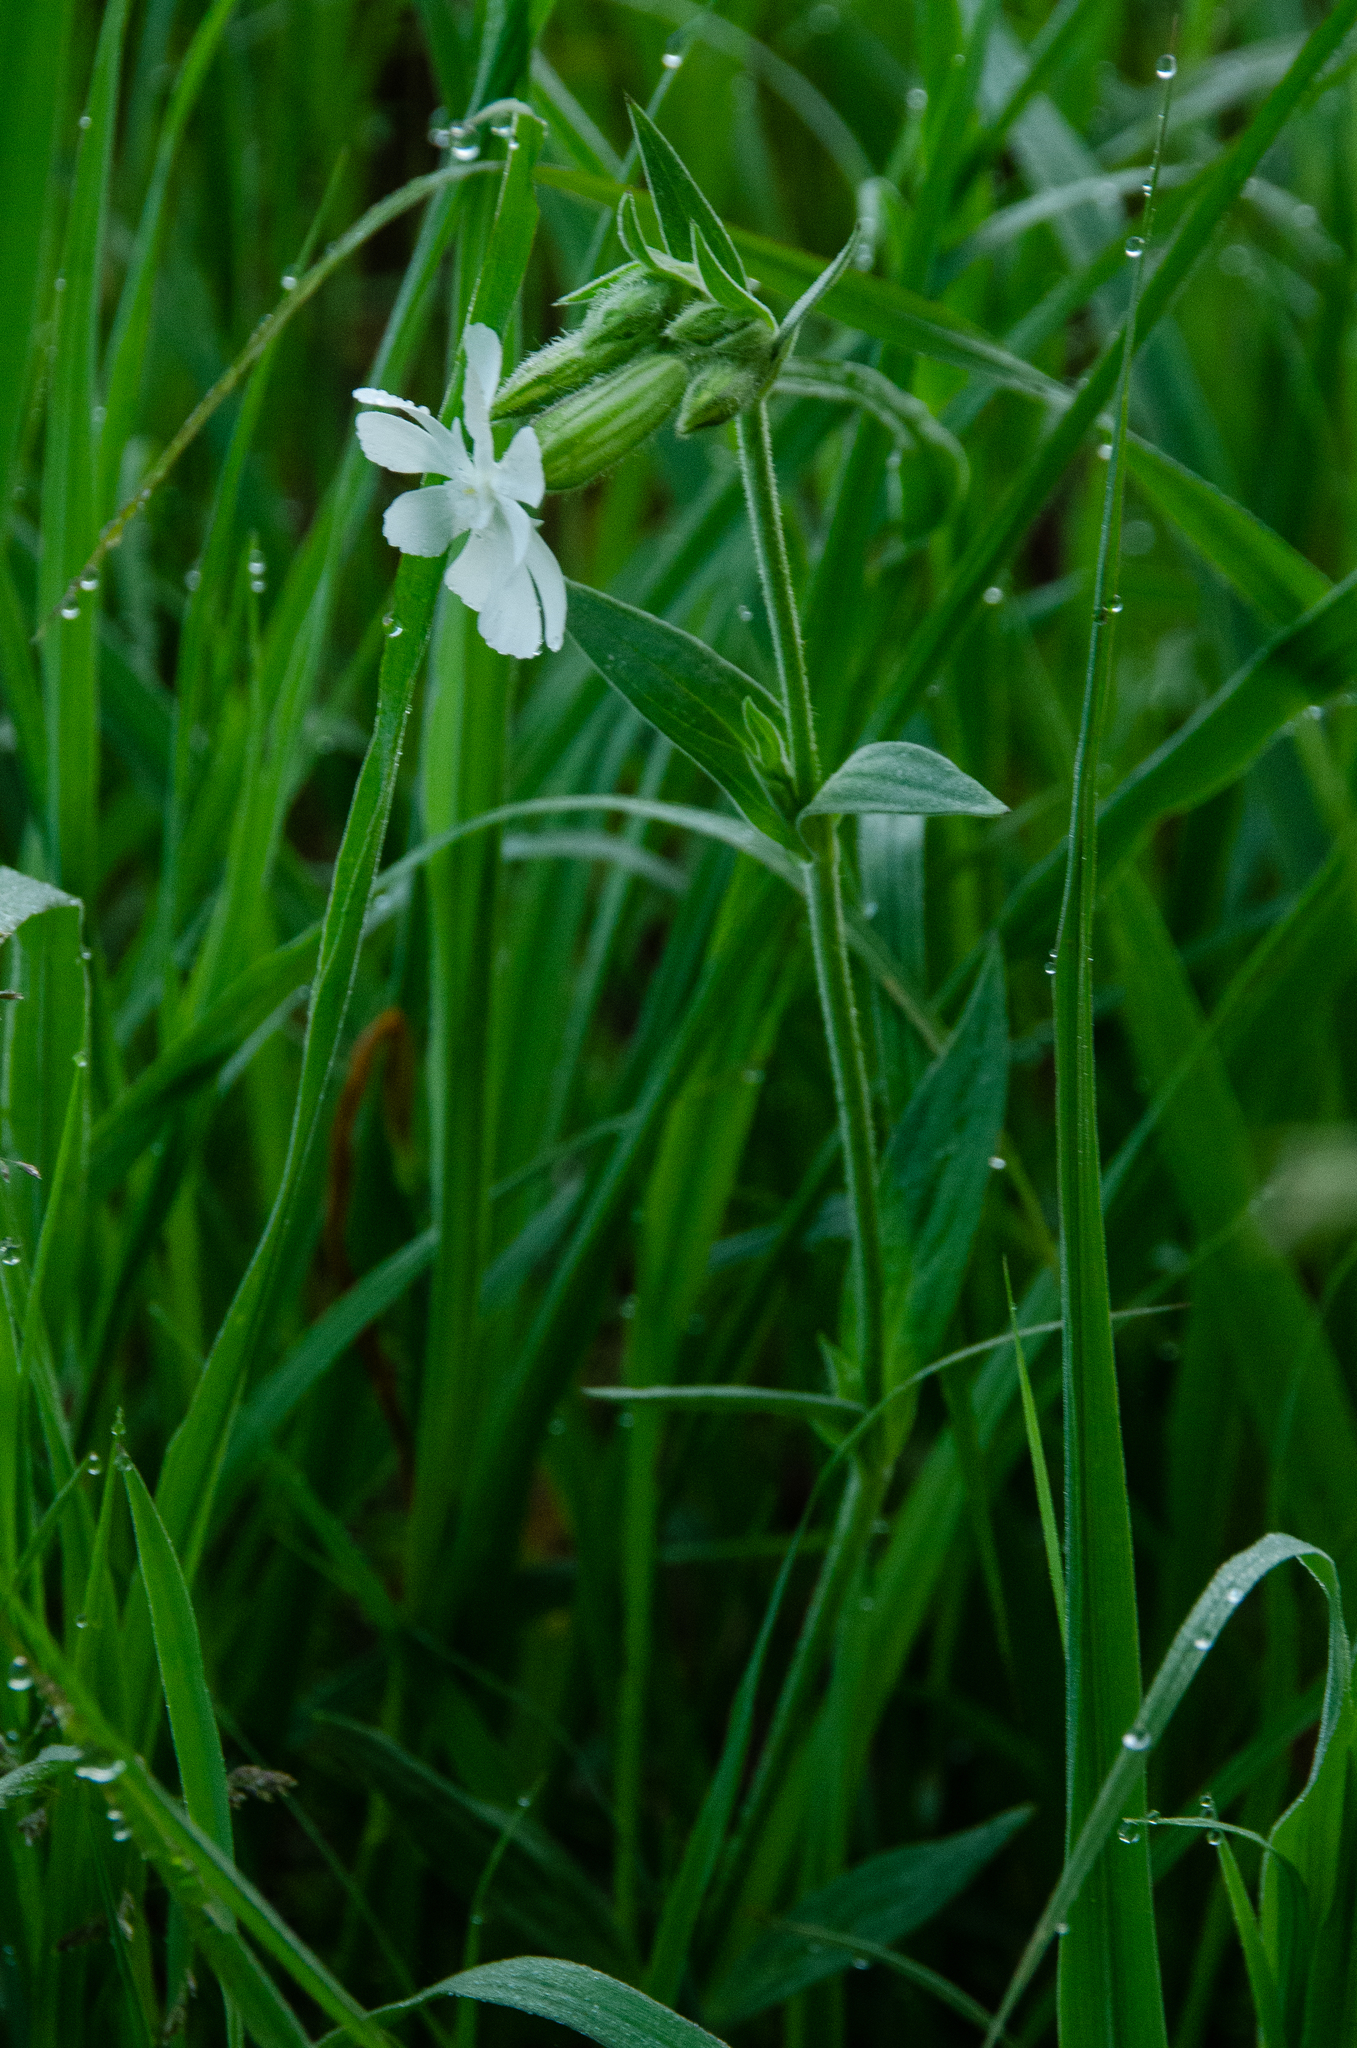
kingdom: Plantae
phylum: Tracheophyta
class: Magnoliopsida
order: Caryophyllales
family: Caryophyllaceae
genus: Silene
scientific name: Silene latifolia
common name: White campion
